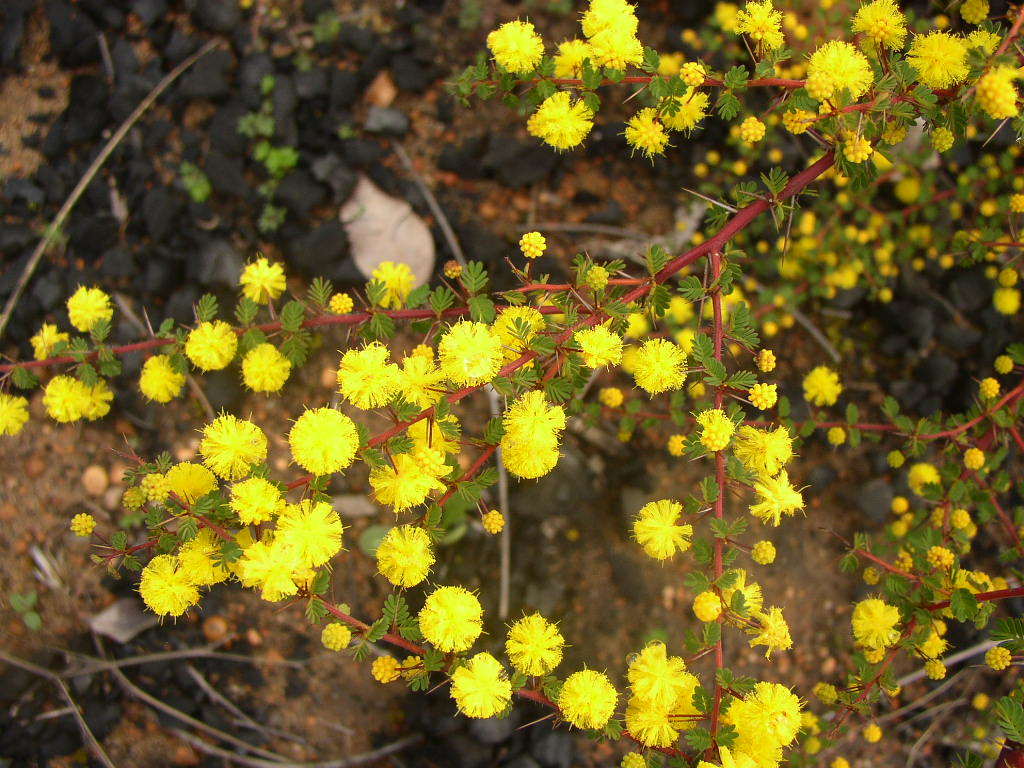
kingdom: Plantae
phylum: Tracheophyta
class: Magnoliopsida
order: Fabales
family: Fabaceae
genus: Acacia
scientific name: Acacia pulchella
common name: Prickly moses
